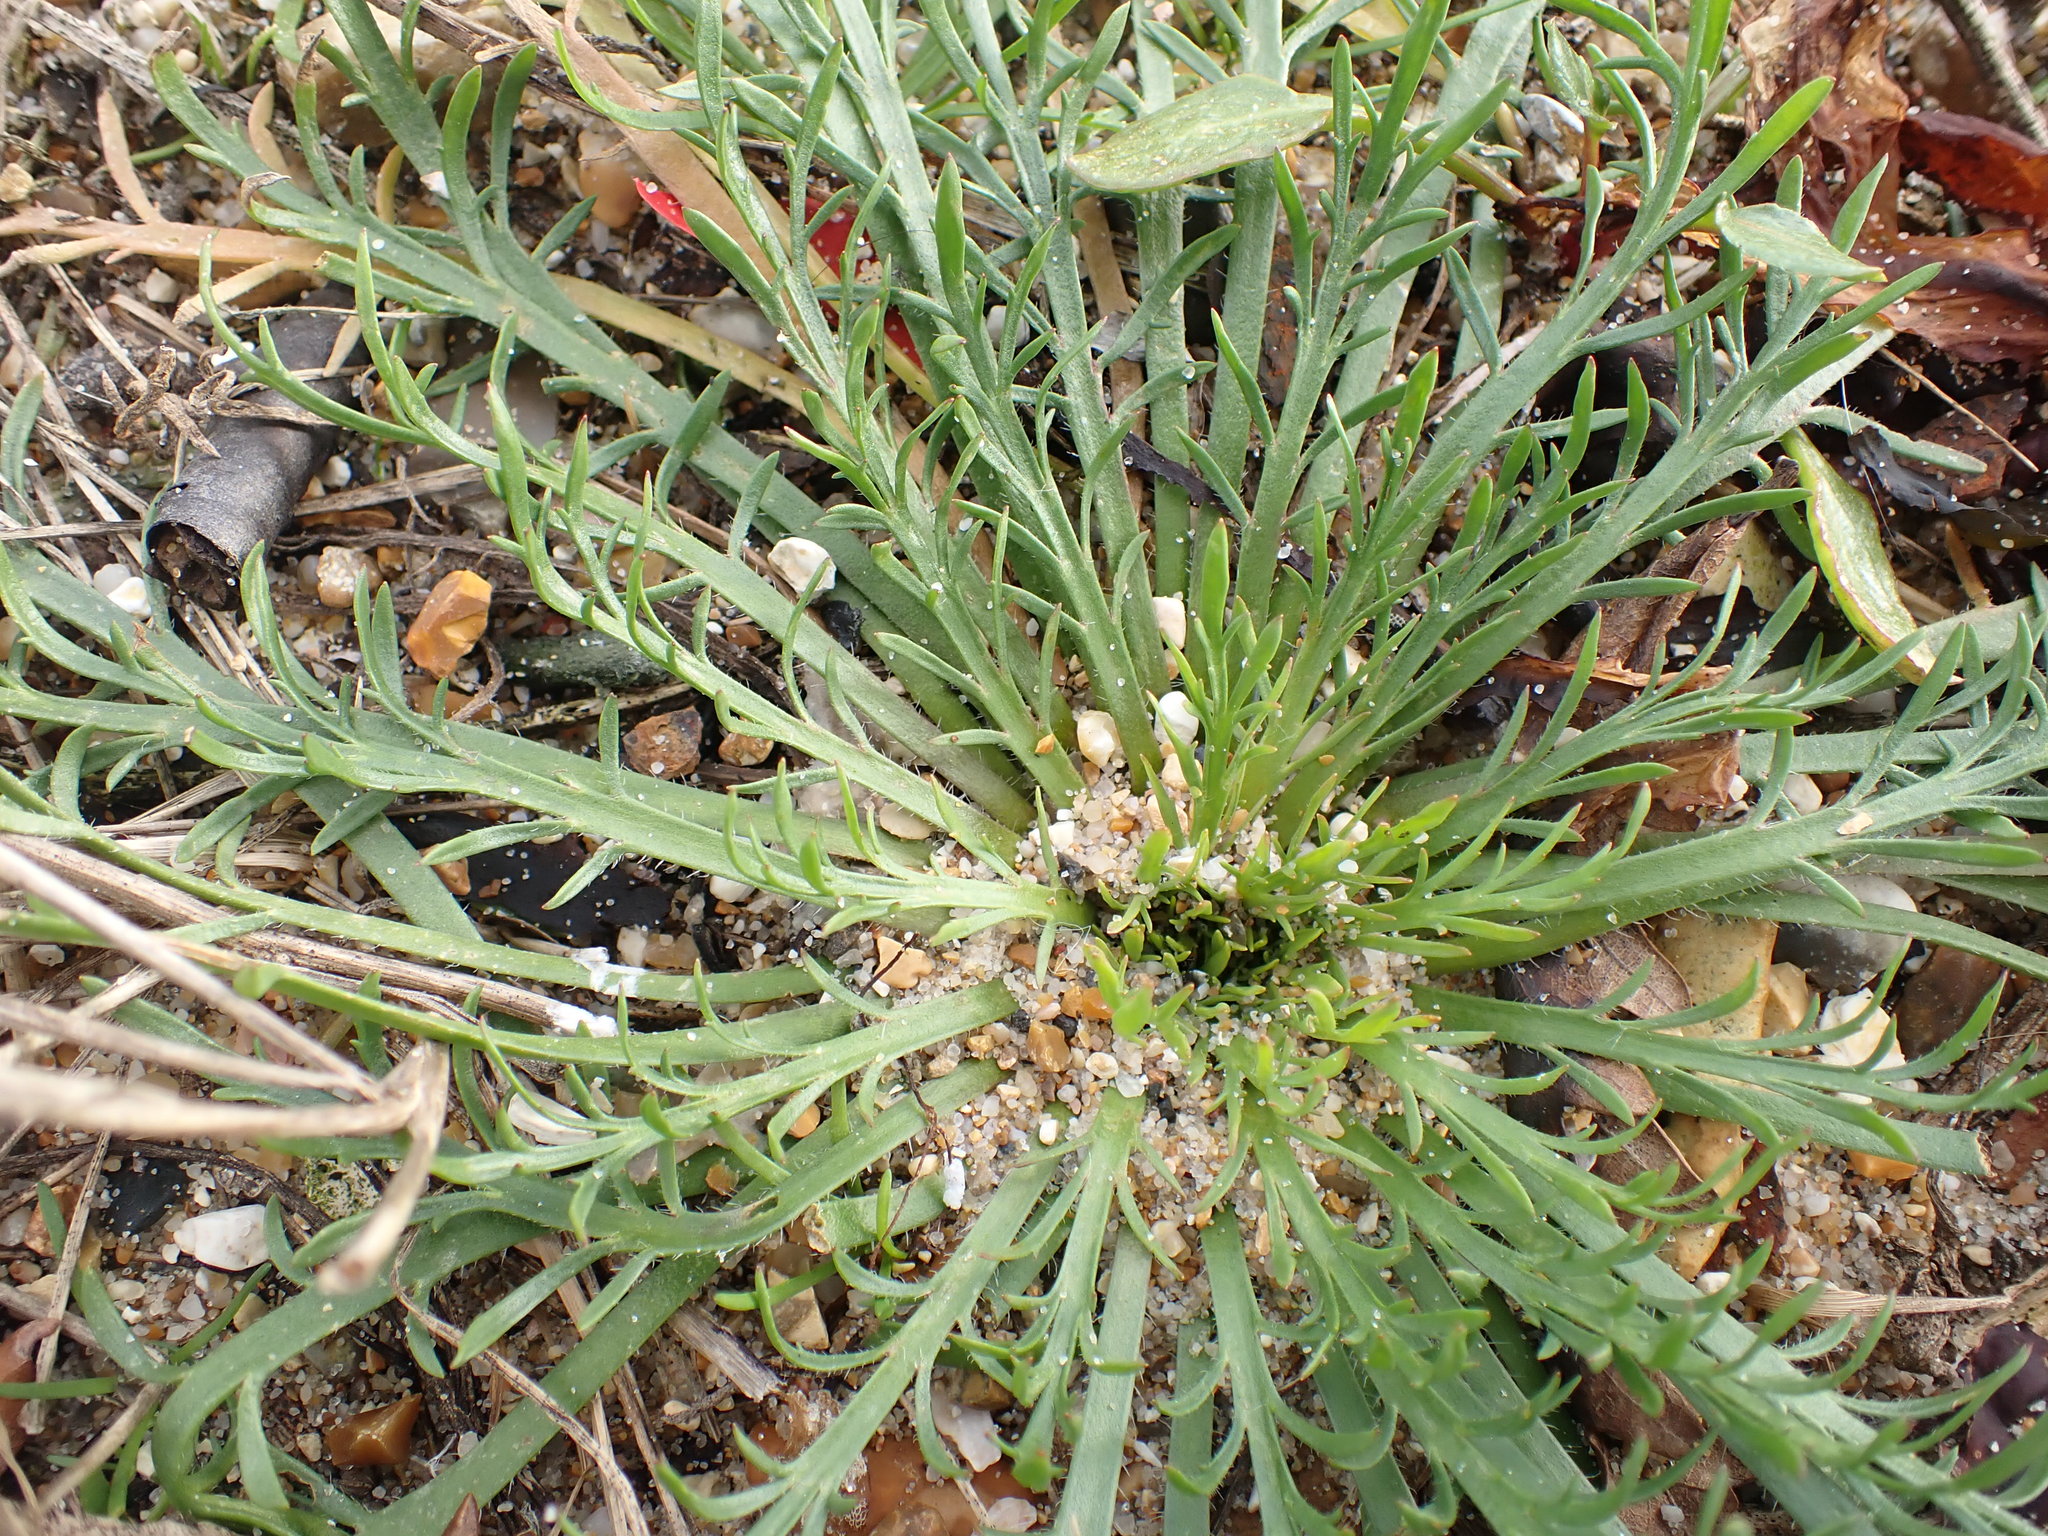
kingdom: Plantae
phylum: Tracheophyta
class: Magnoliopsida
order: Lamiales
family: Plantaginaceae
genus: Plantago
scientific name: Plantago coronopus
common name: Buck's-horn plantain
